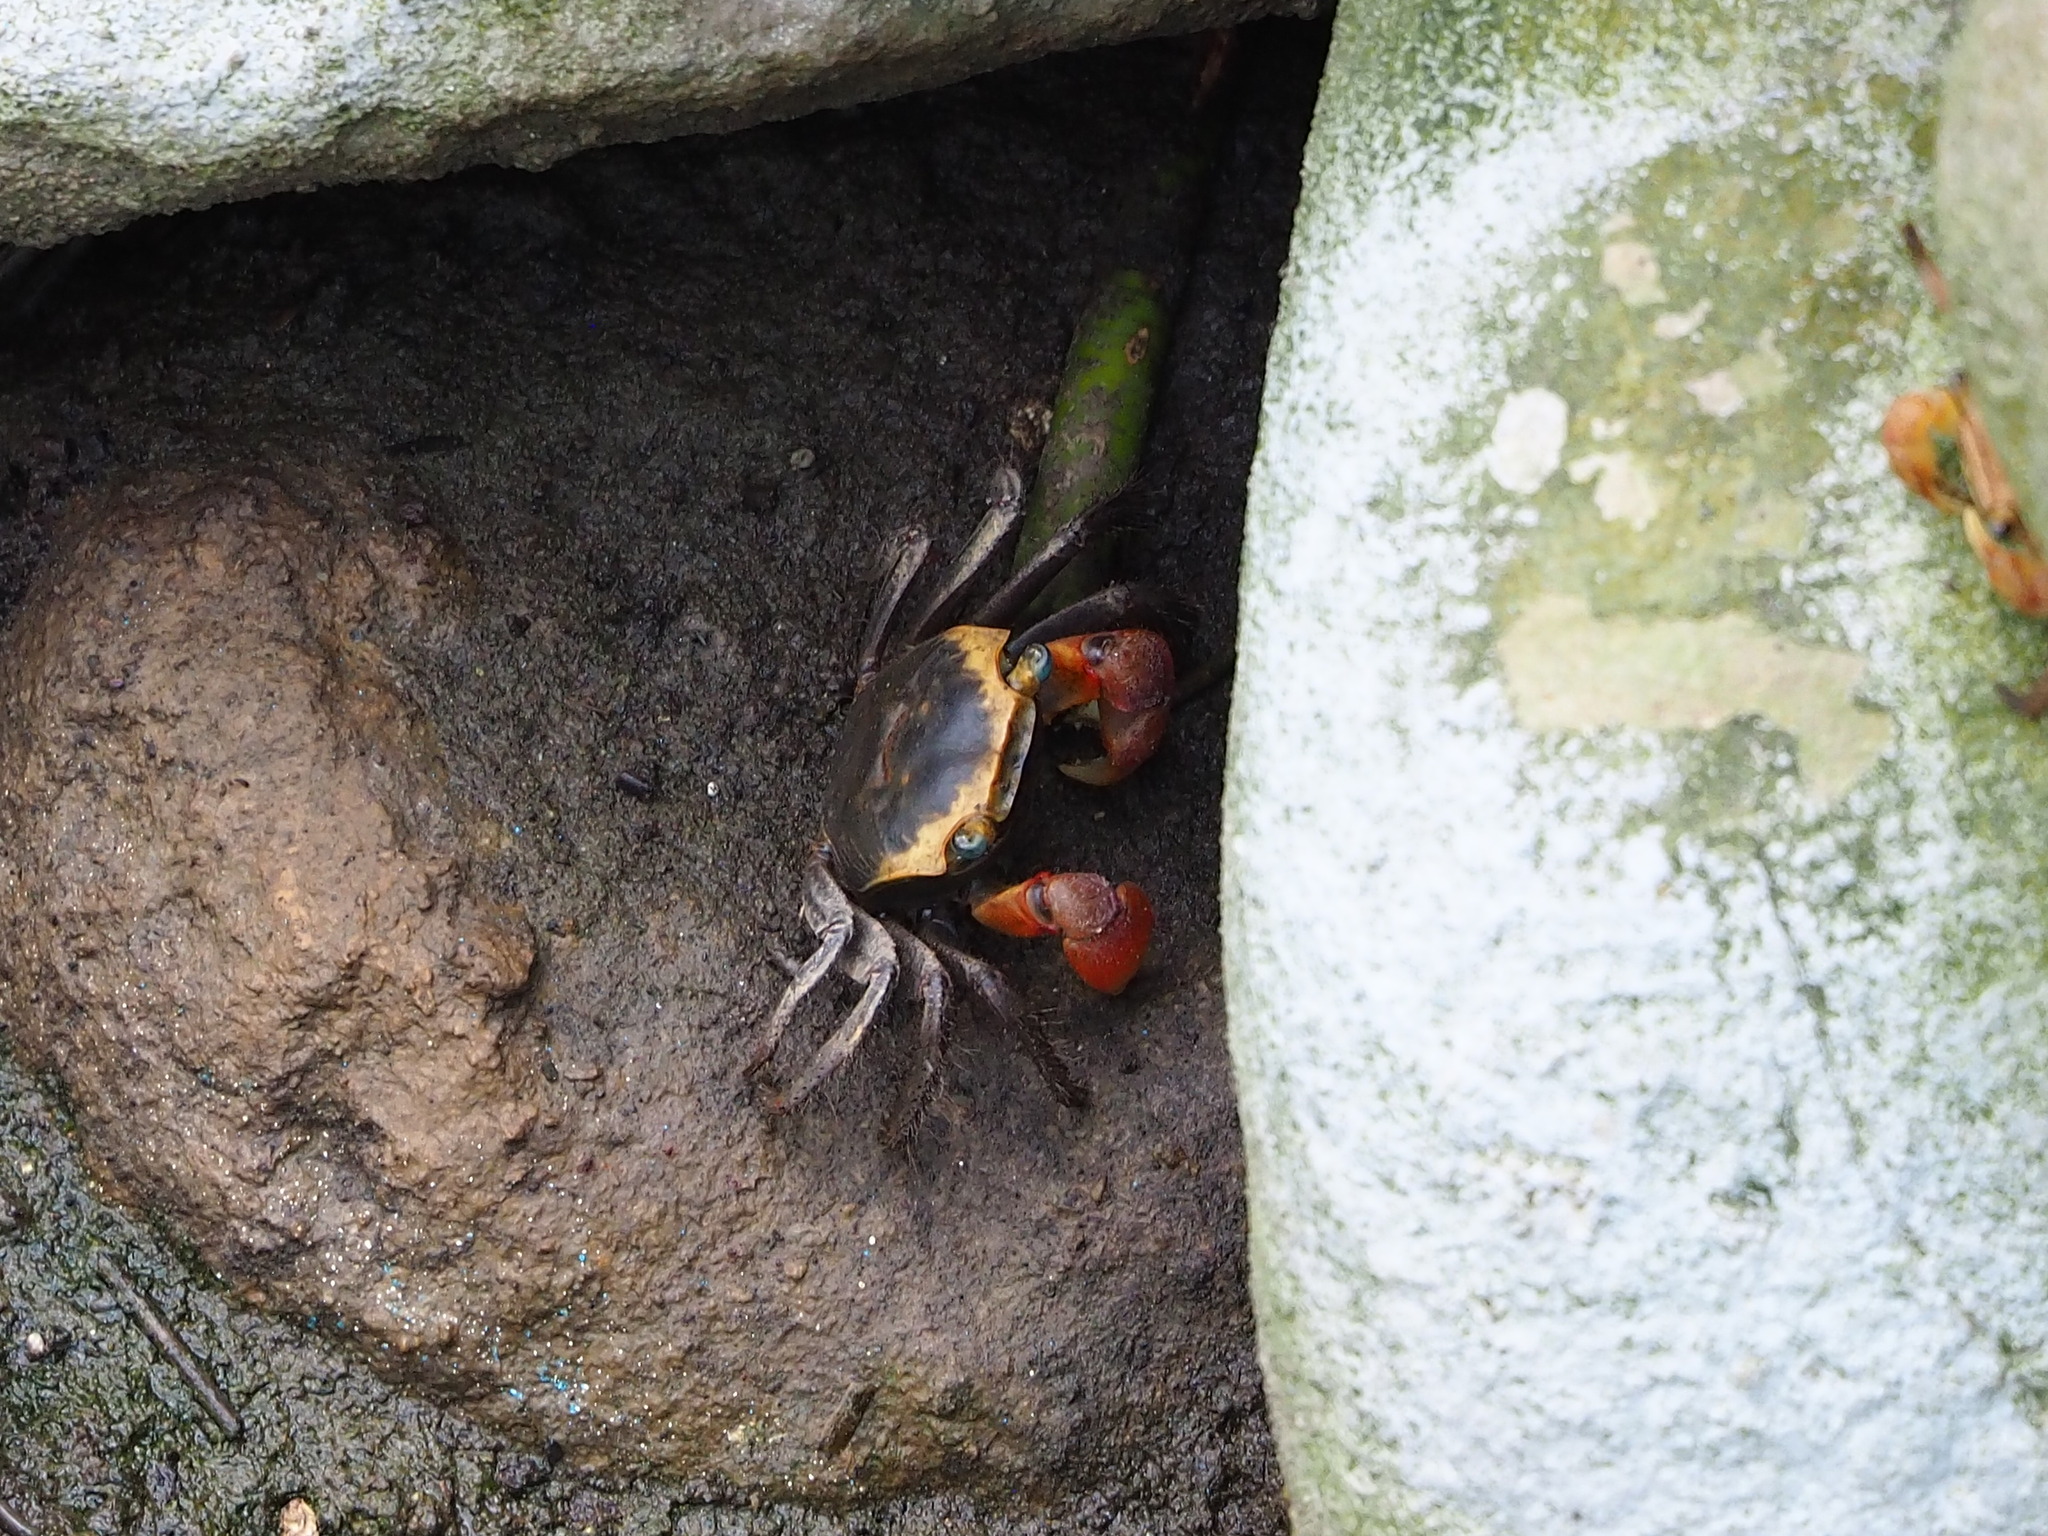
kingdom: Animalia
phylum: Arthropoda
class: Malacostraca
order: Decapoda
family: Sesarmidae
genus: Chiromantes
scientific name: Chiromantes haematocheir
